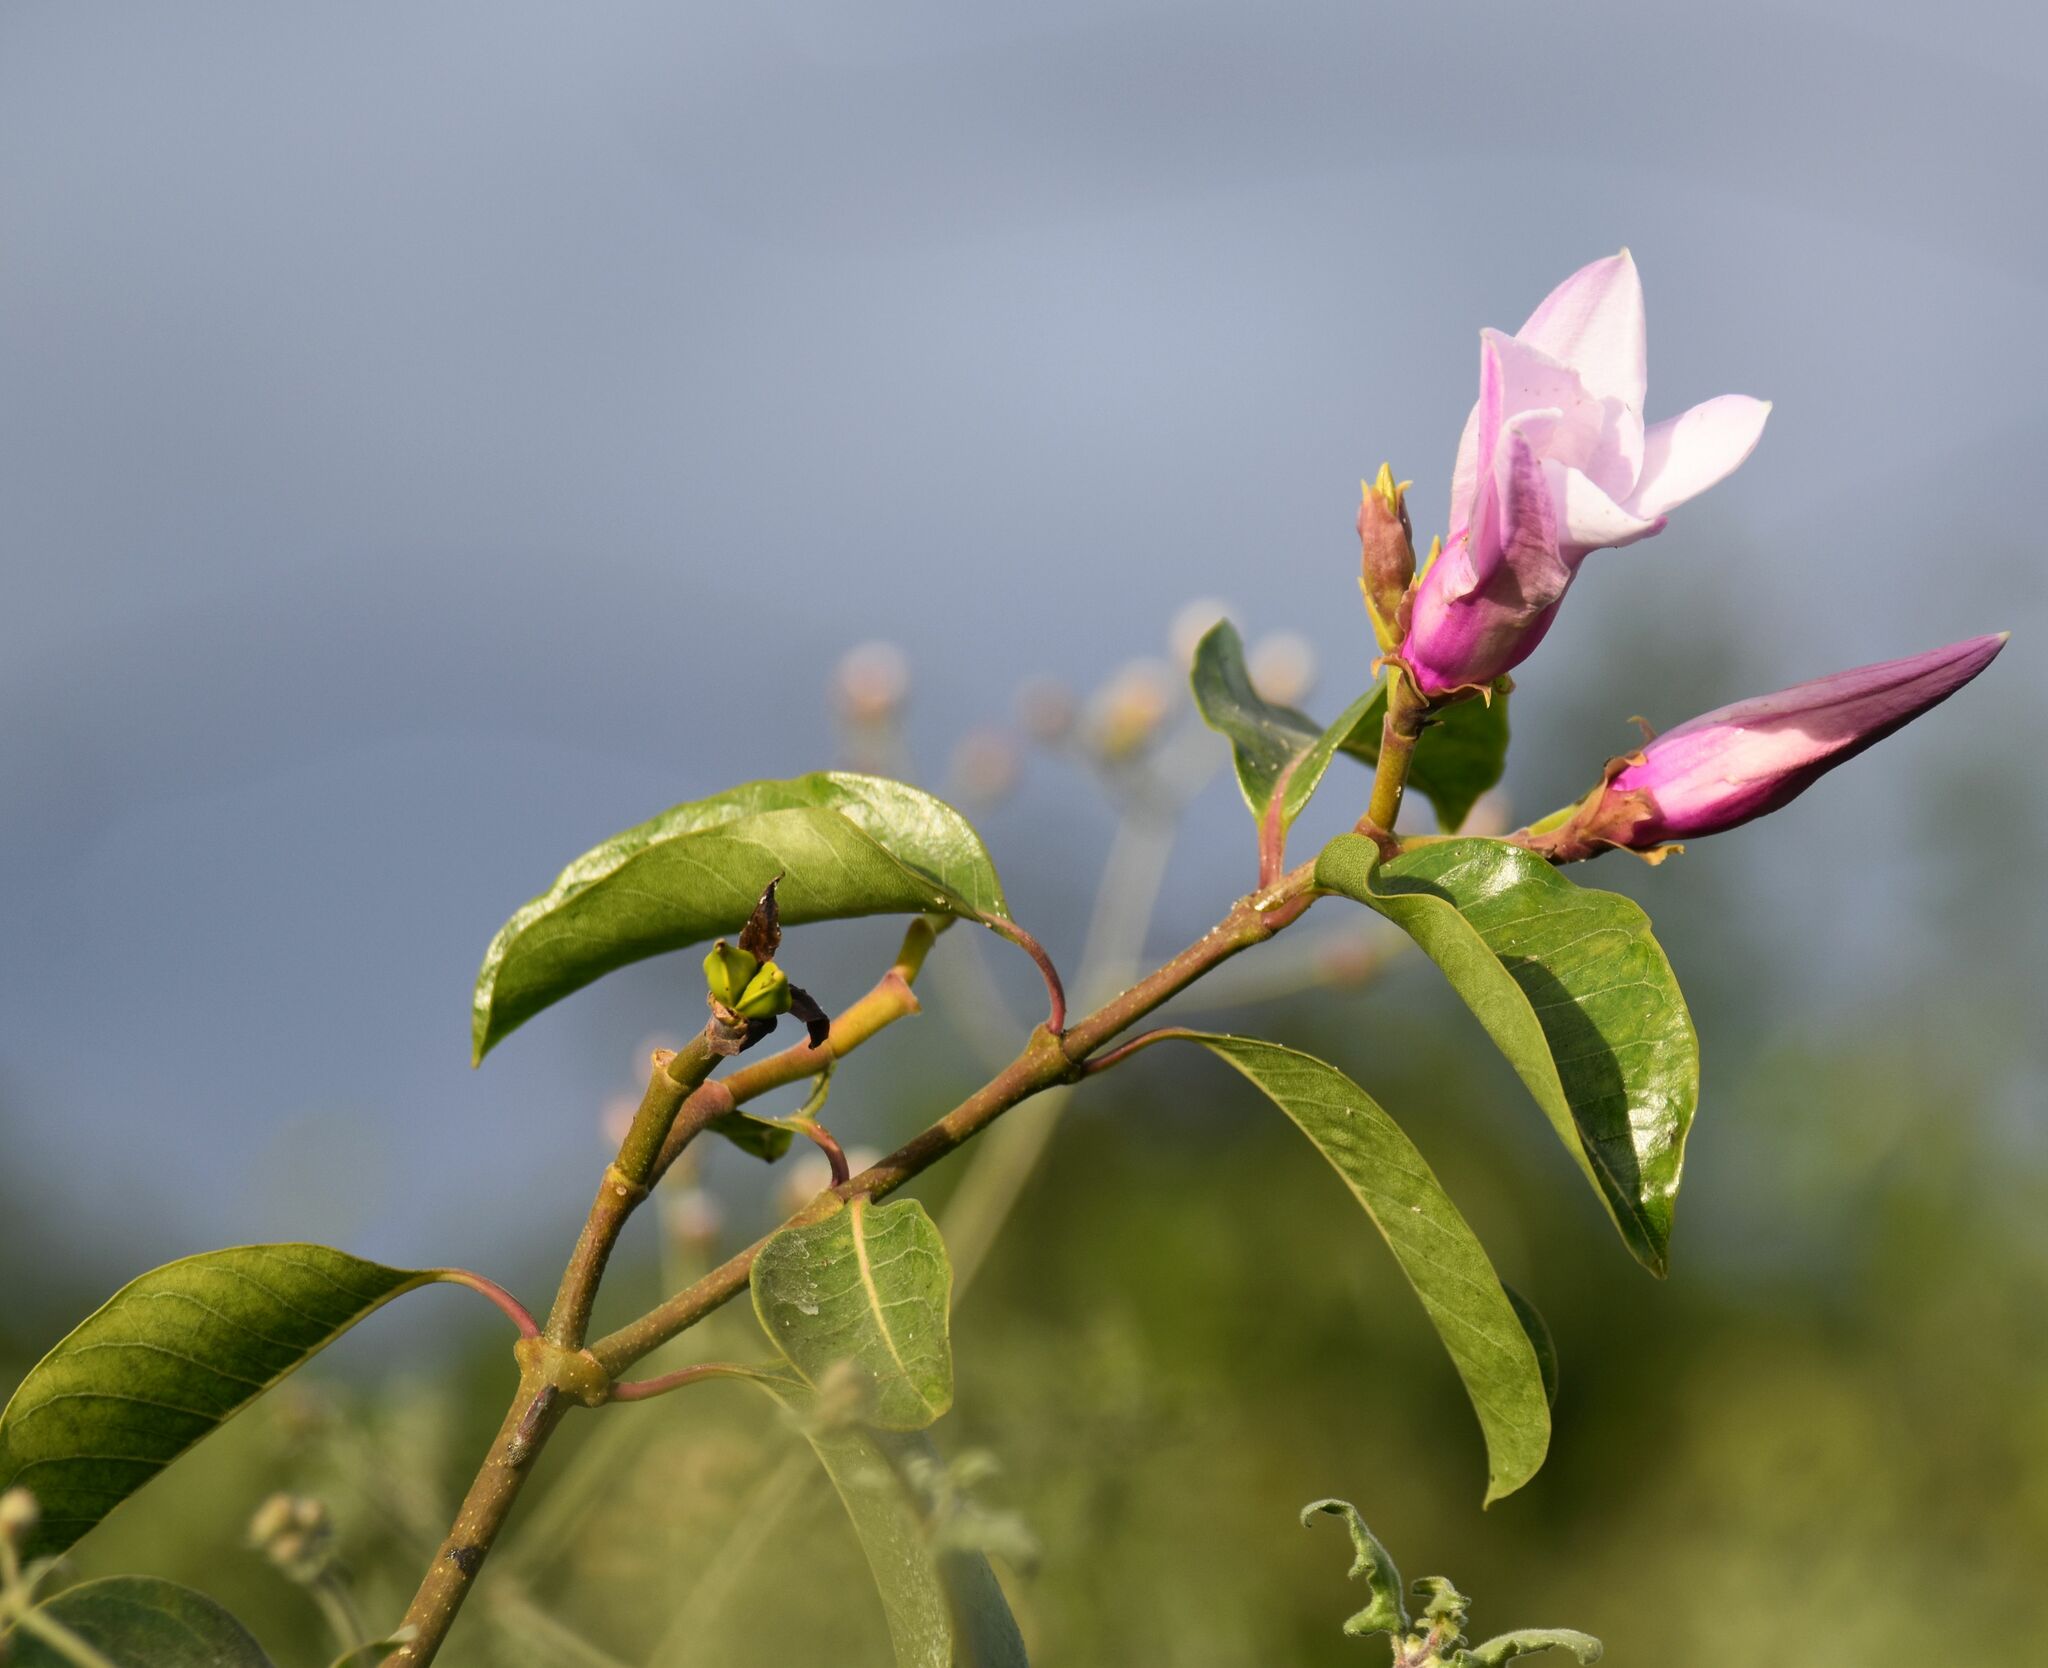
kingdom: Plantae
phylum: Tracheophyta
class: Magnoliopsida
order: Gentianales
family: Apocynaceae
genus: Cryptostegia
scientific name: Cryptostegia grandiflora
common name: Palay rubbervine
